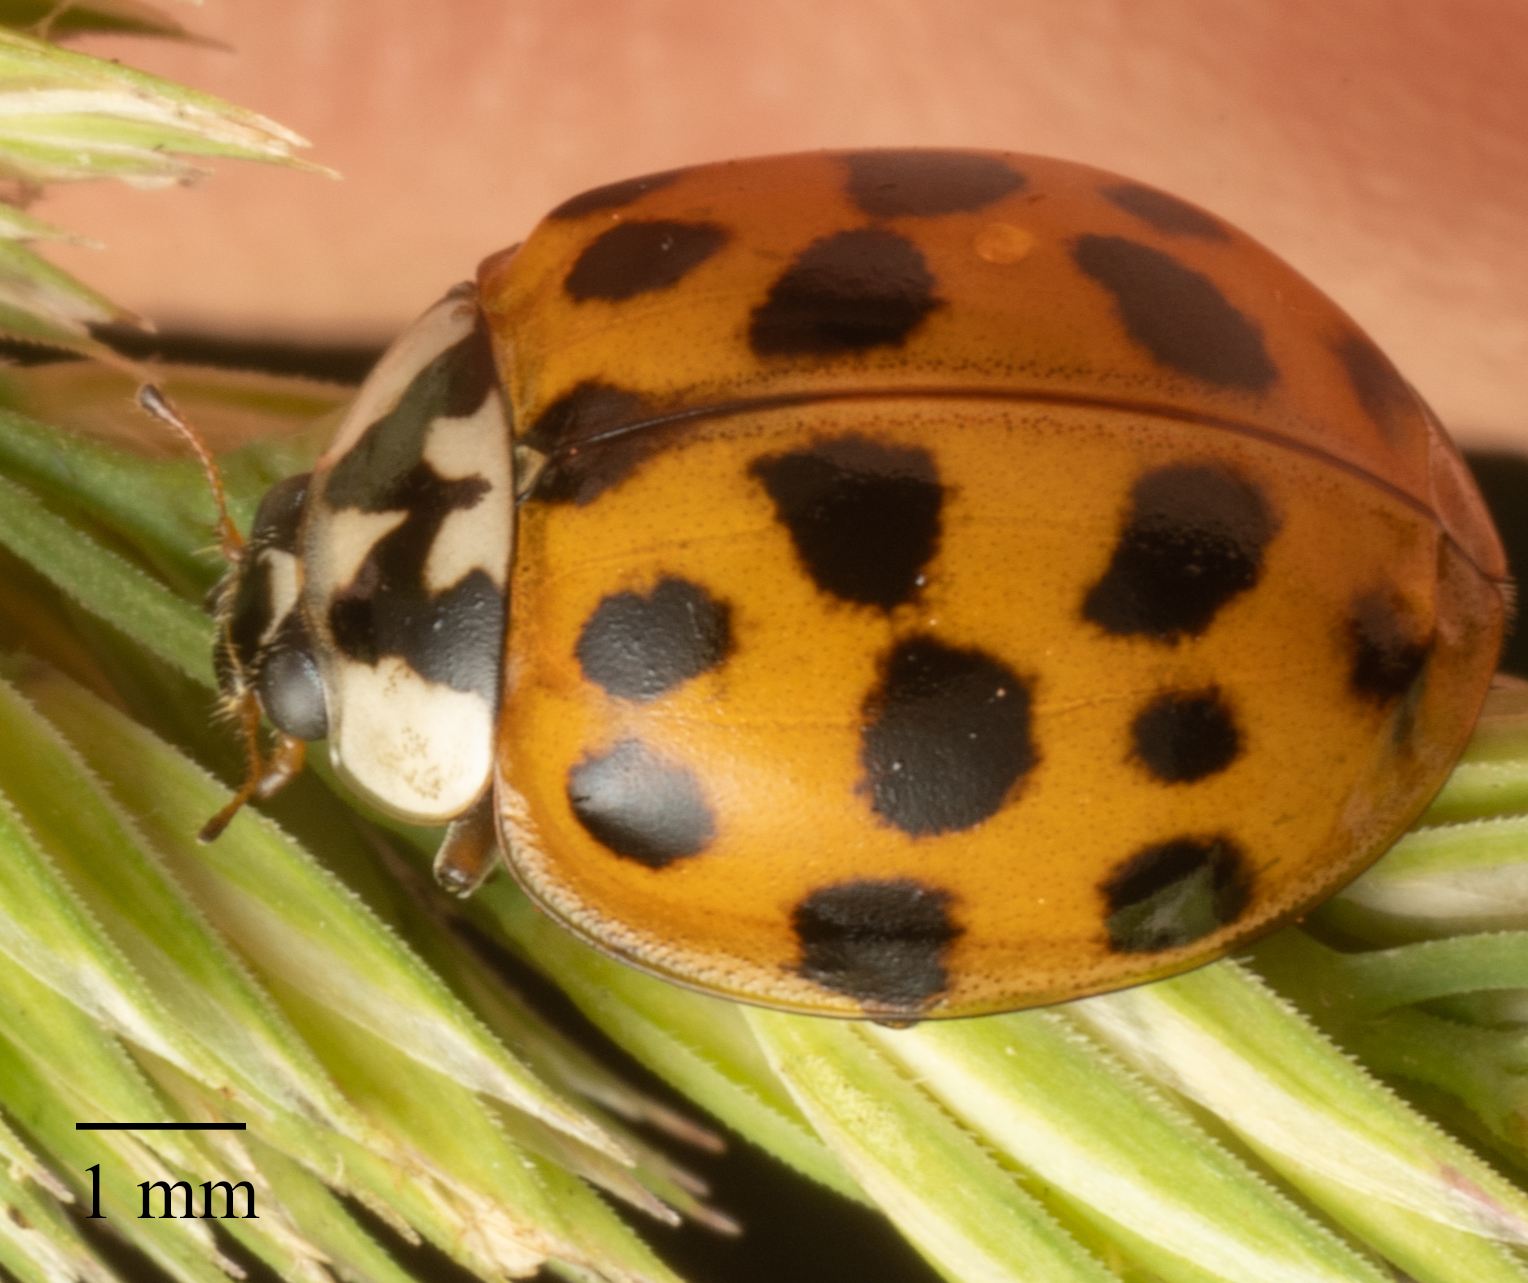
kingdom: Animalia
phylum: Arthropoda
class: Insecta
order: Coleoptera
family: Coccinellidae
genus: Harmonia
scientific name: Harmonia axyridis
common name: Harlequin ladybird
